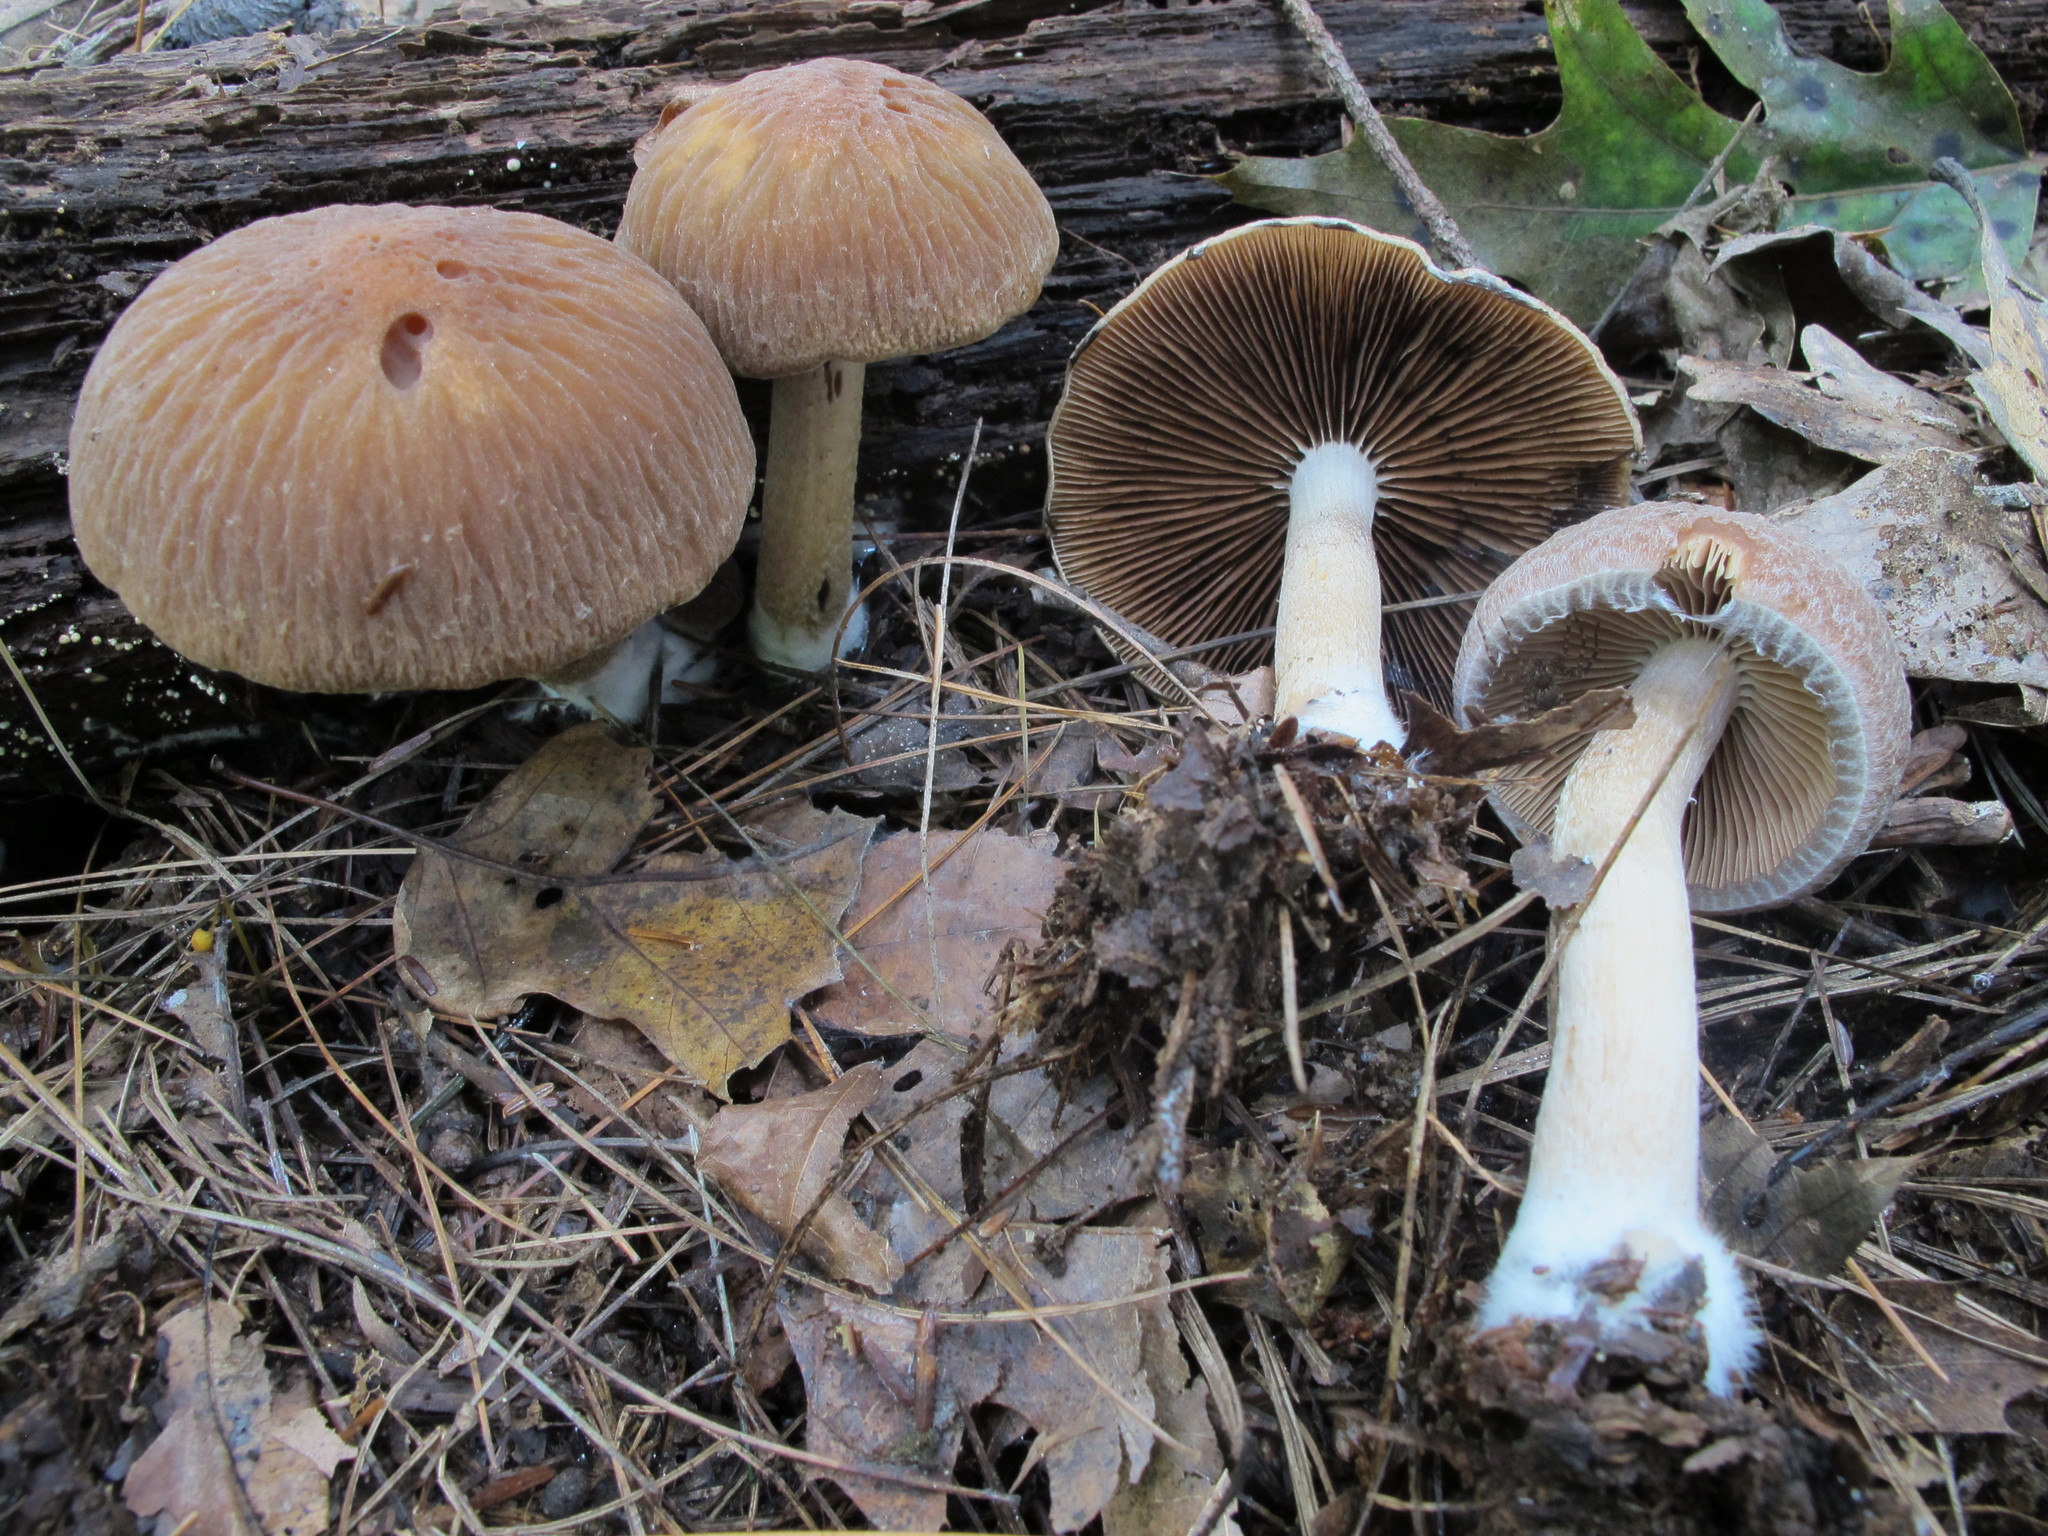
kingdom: Fungi
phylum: Basidiomycota
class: Agaricomycetes
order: Agaricales
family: Psathyrellaceae
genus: Typhrasa
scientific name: Typhrasa gossypina
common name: Wrinkled psathyrella
